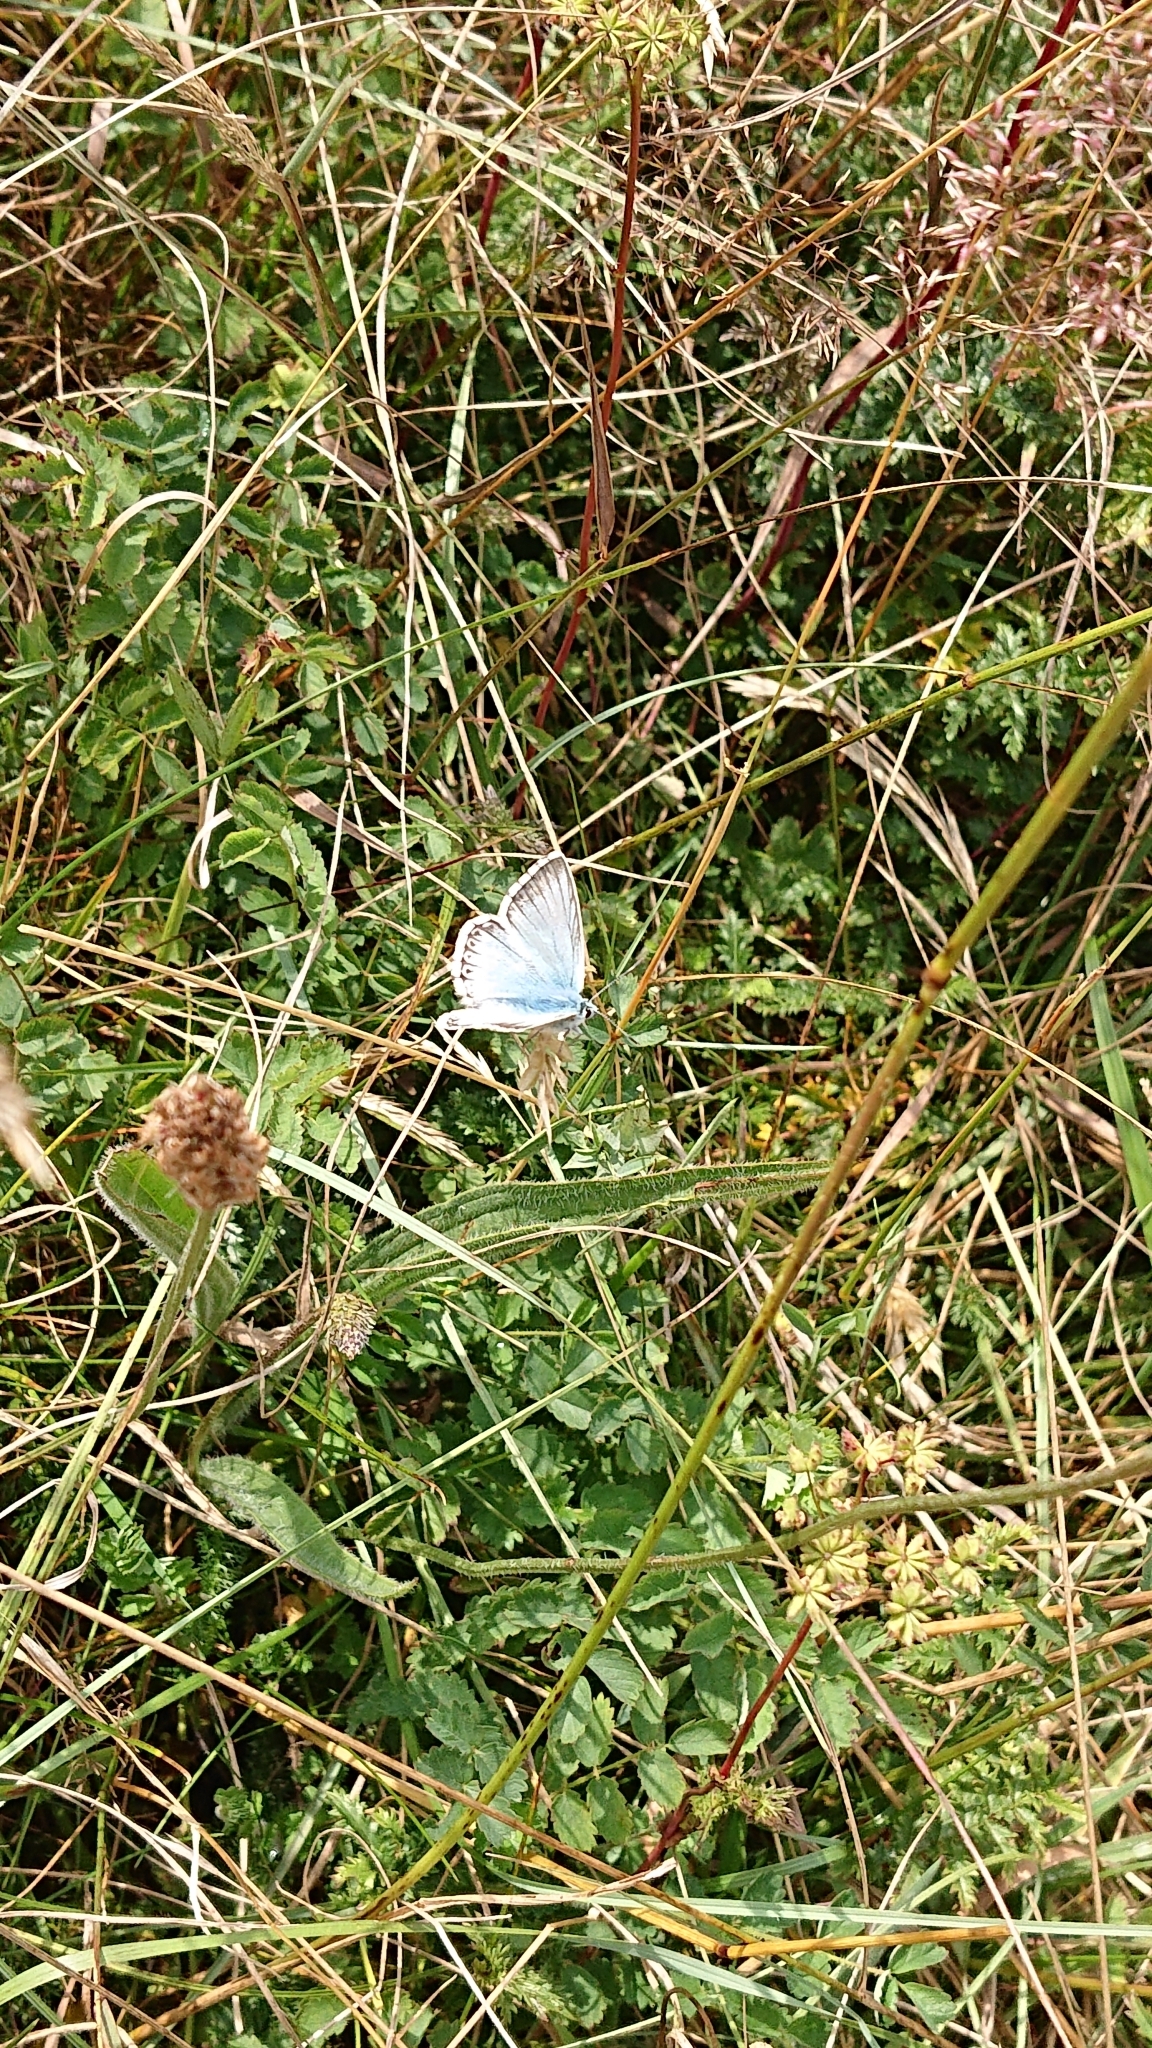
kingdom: Animalia
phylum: Arthropoda
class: Insecta
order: Lepidoptera
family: Lycaenidae
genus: Lysandra
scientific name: Lysandra coridon
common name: Chalkhill blue
